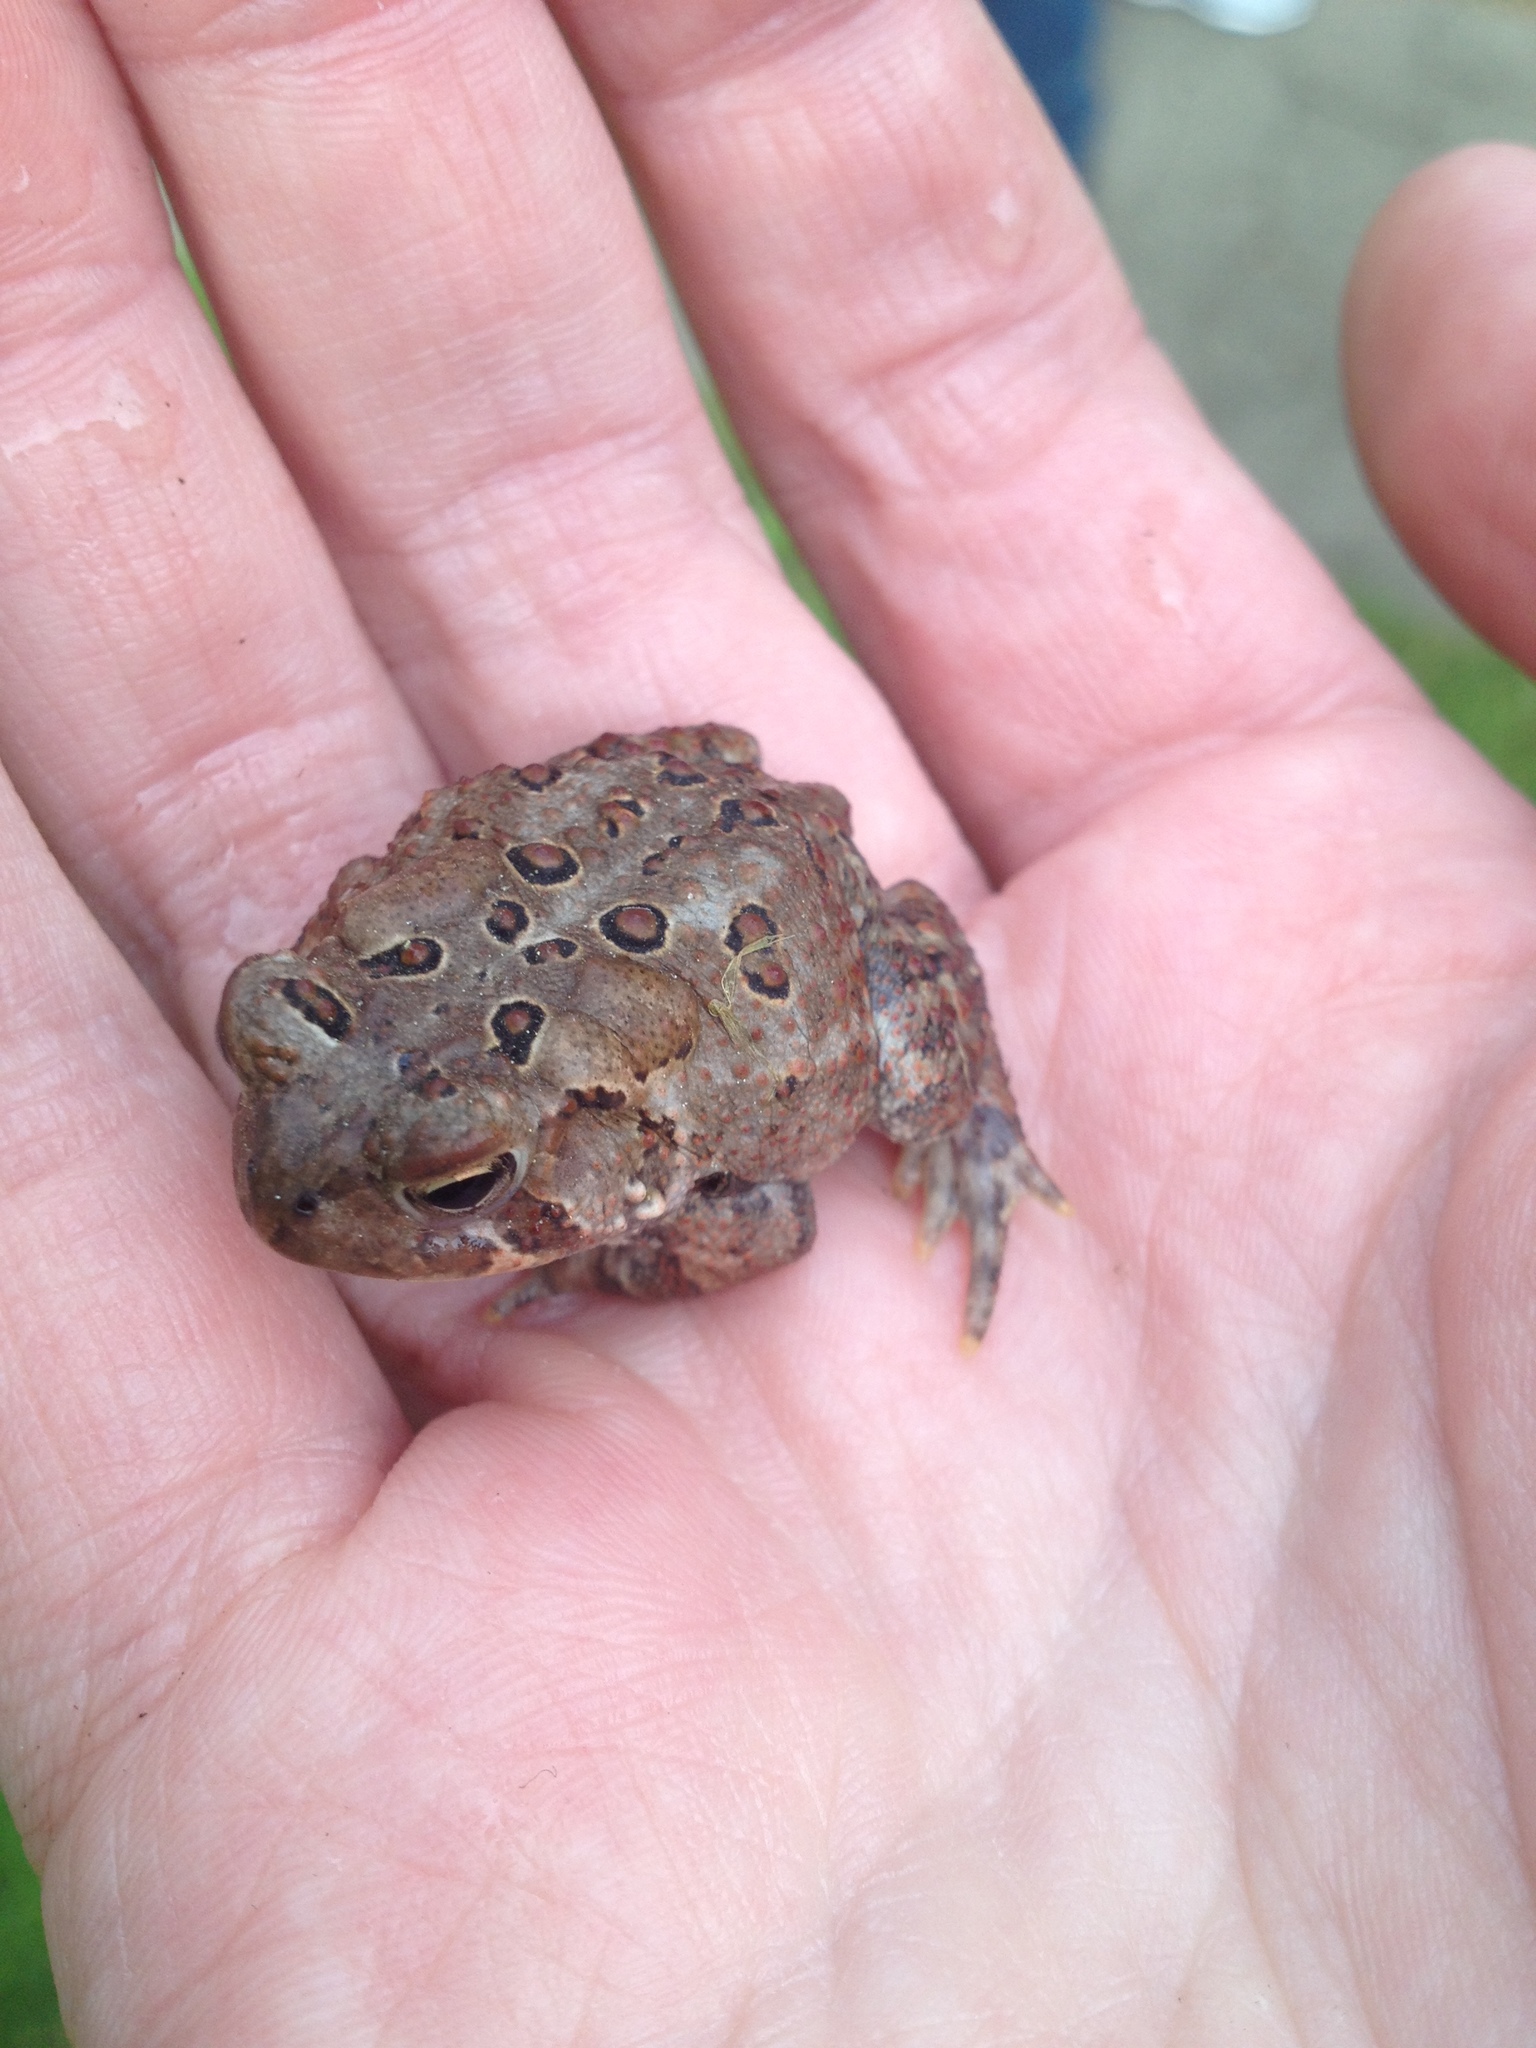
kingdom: Animalia
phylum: Chordata
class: Amphibia
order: Anura
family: Bufonidae
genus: Anaxyrus
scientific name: Anaxyrus americanus
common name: American toad
